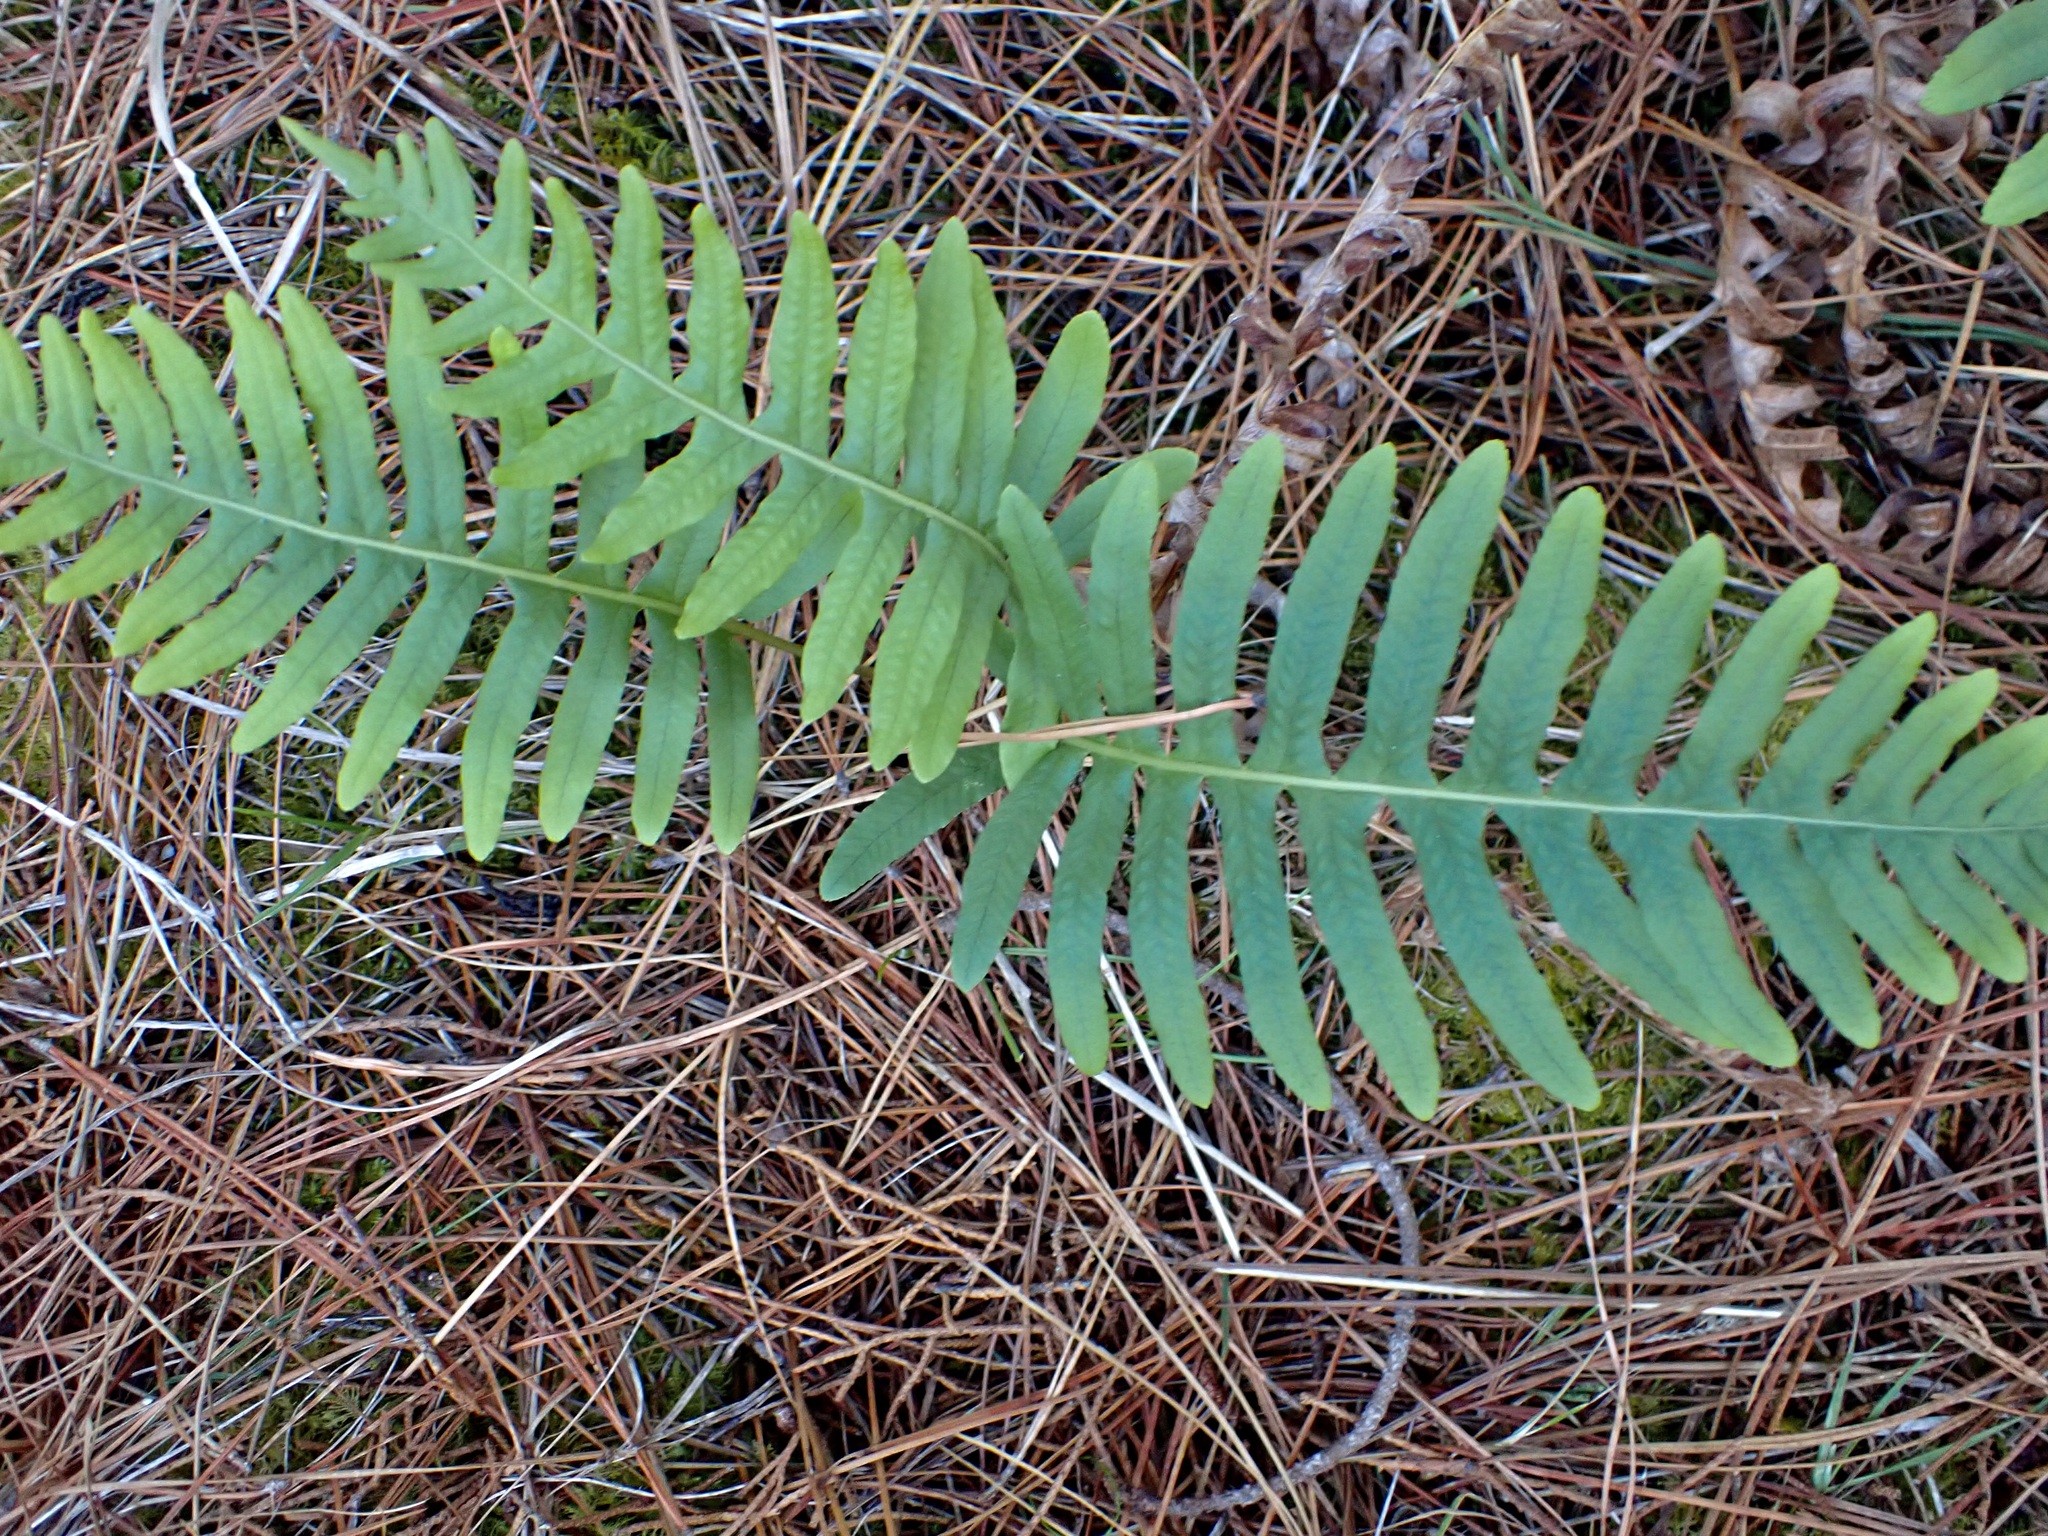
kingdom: Plantae
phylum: Tracheophyta
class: Polypodiopsida
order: Polypodiales
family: Polypodiaceae
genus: Polypodium
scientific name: Polypodium vulgare
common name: Common polypody
